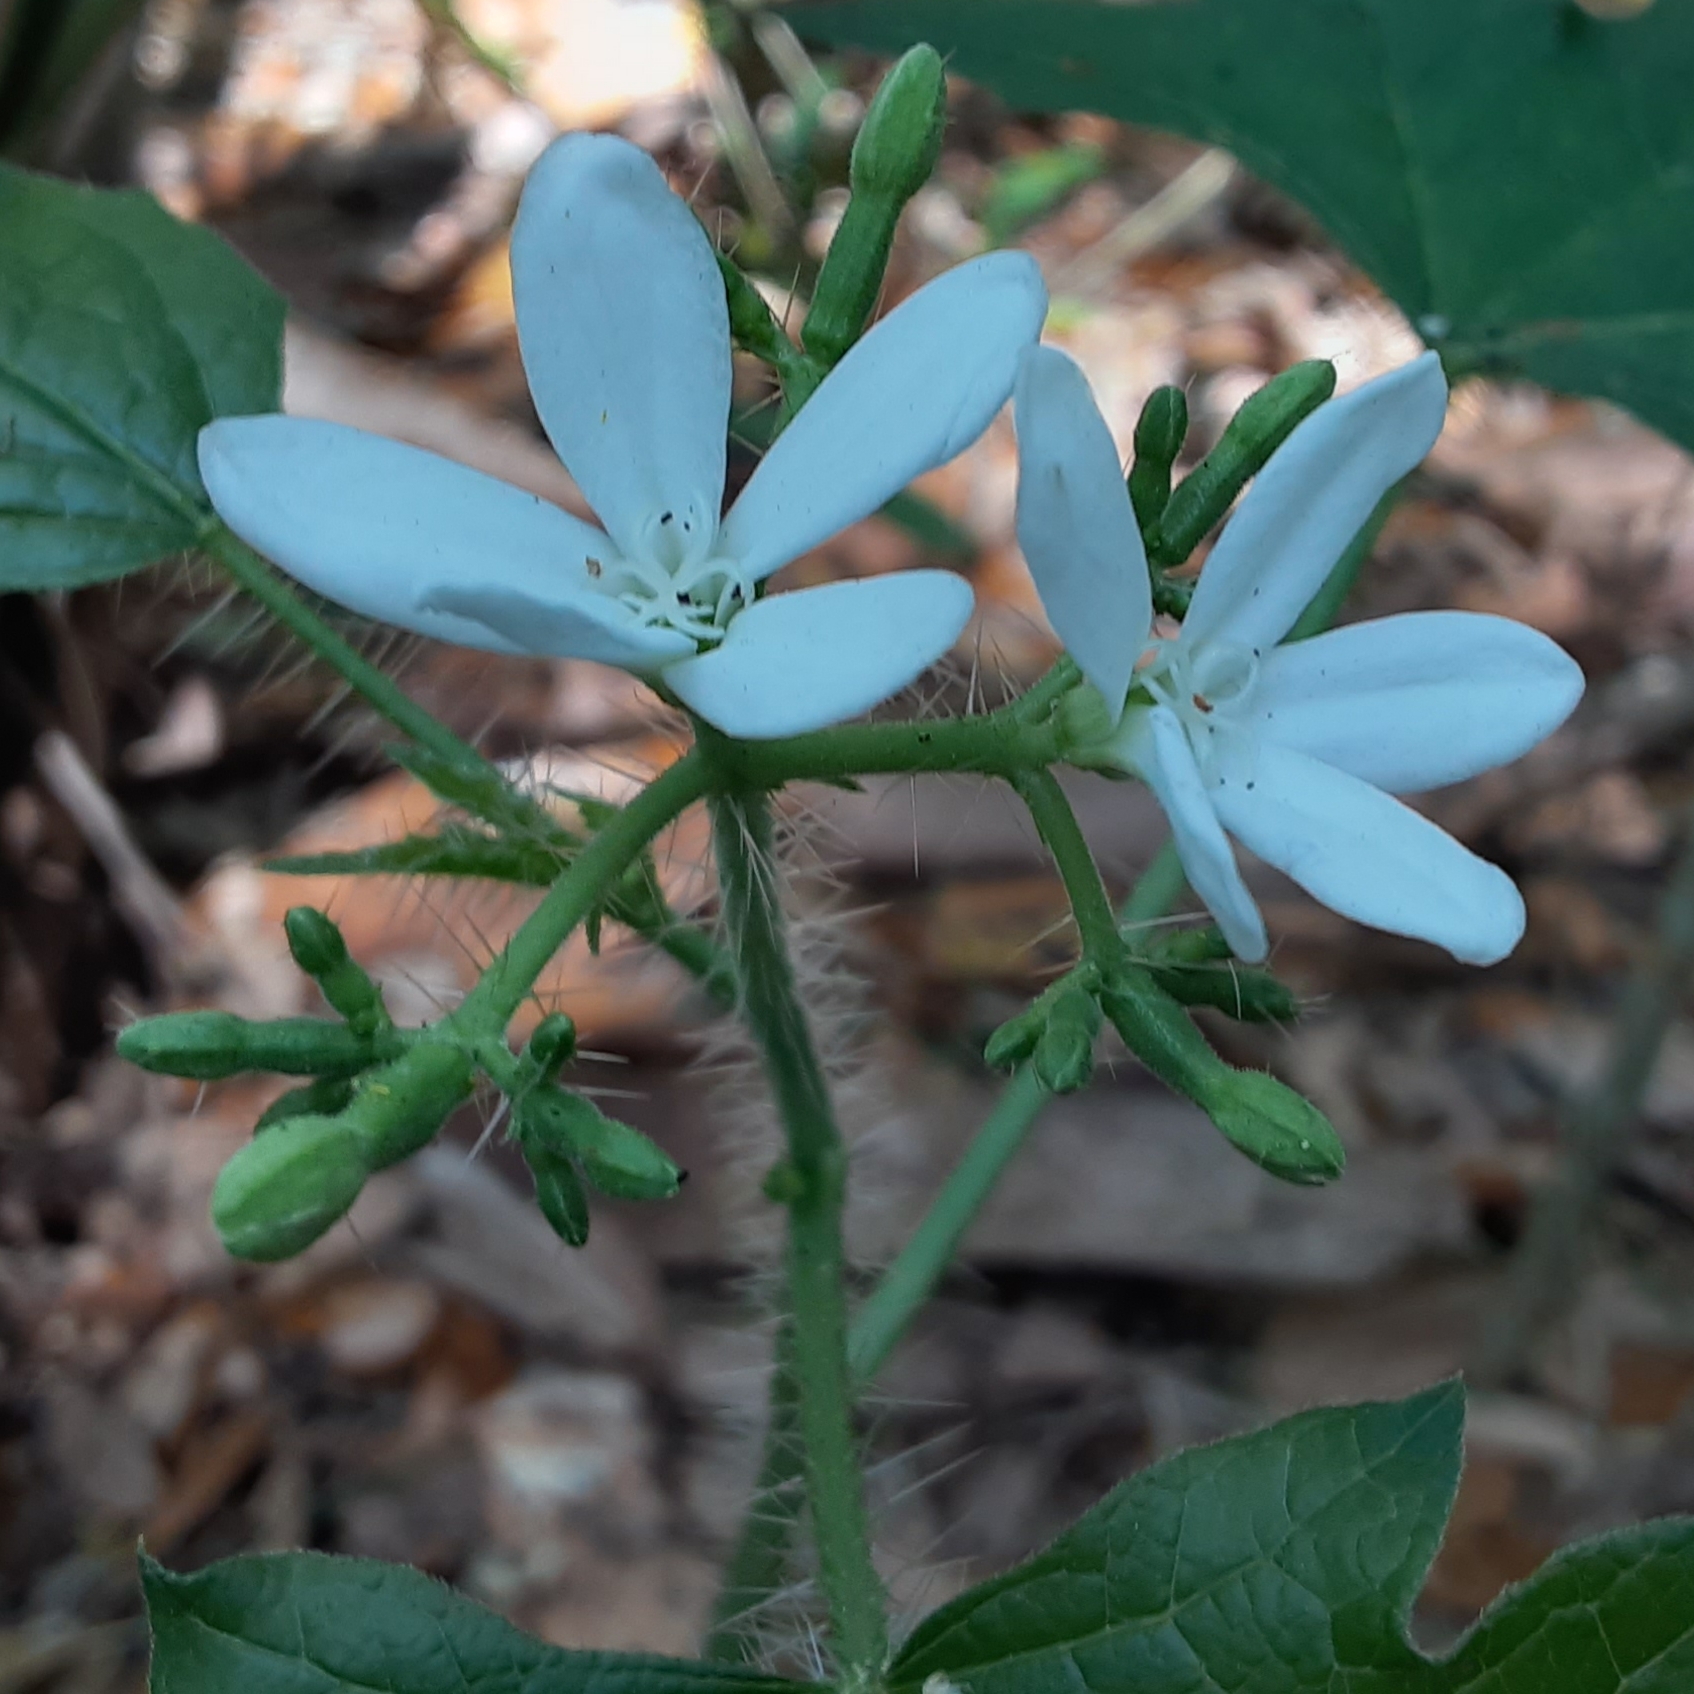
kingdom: Plantae
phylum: Tracheophyta
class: Magnoliopsida
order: Malpighiales
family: Euphorbiaceae
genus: Cnidoscolus
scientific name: Cnidoscolus stimulosus
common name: Bull-nettle
